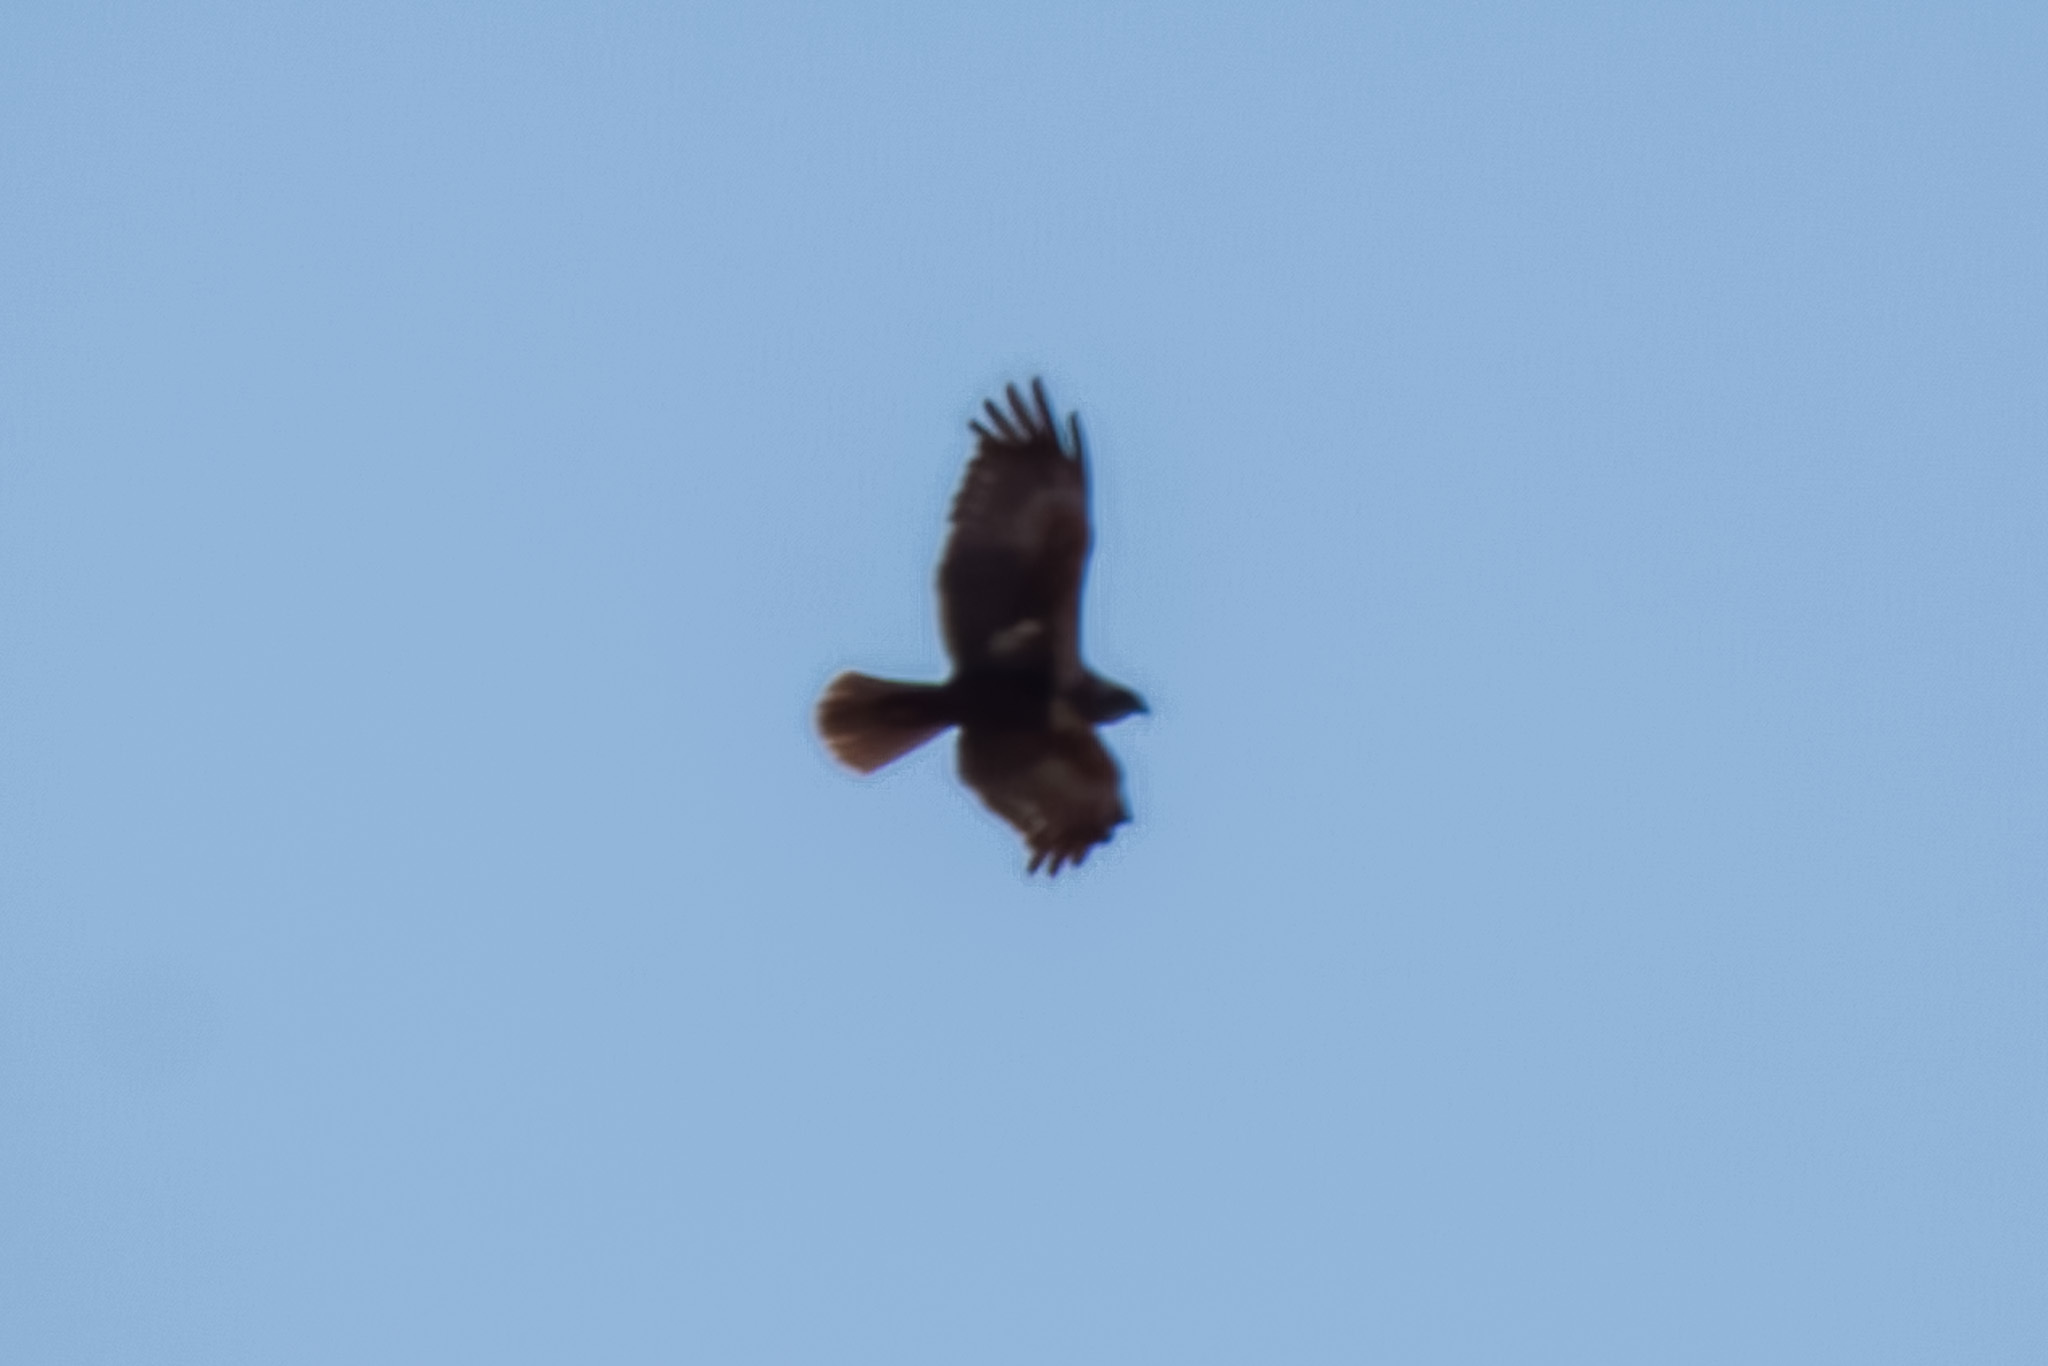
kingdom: Animalia
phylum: Chordata
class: Aves
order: Accipitriformes
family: Accipitridae
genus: Circus
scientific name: Circus aeruginosus
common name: Western marsh harrier
